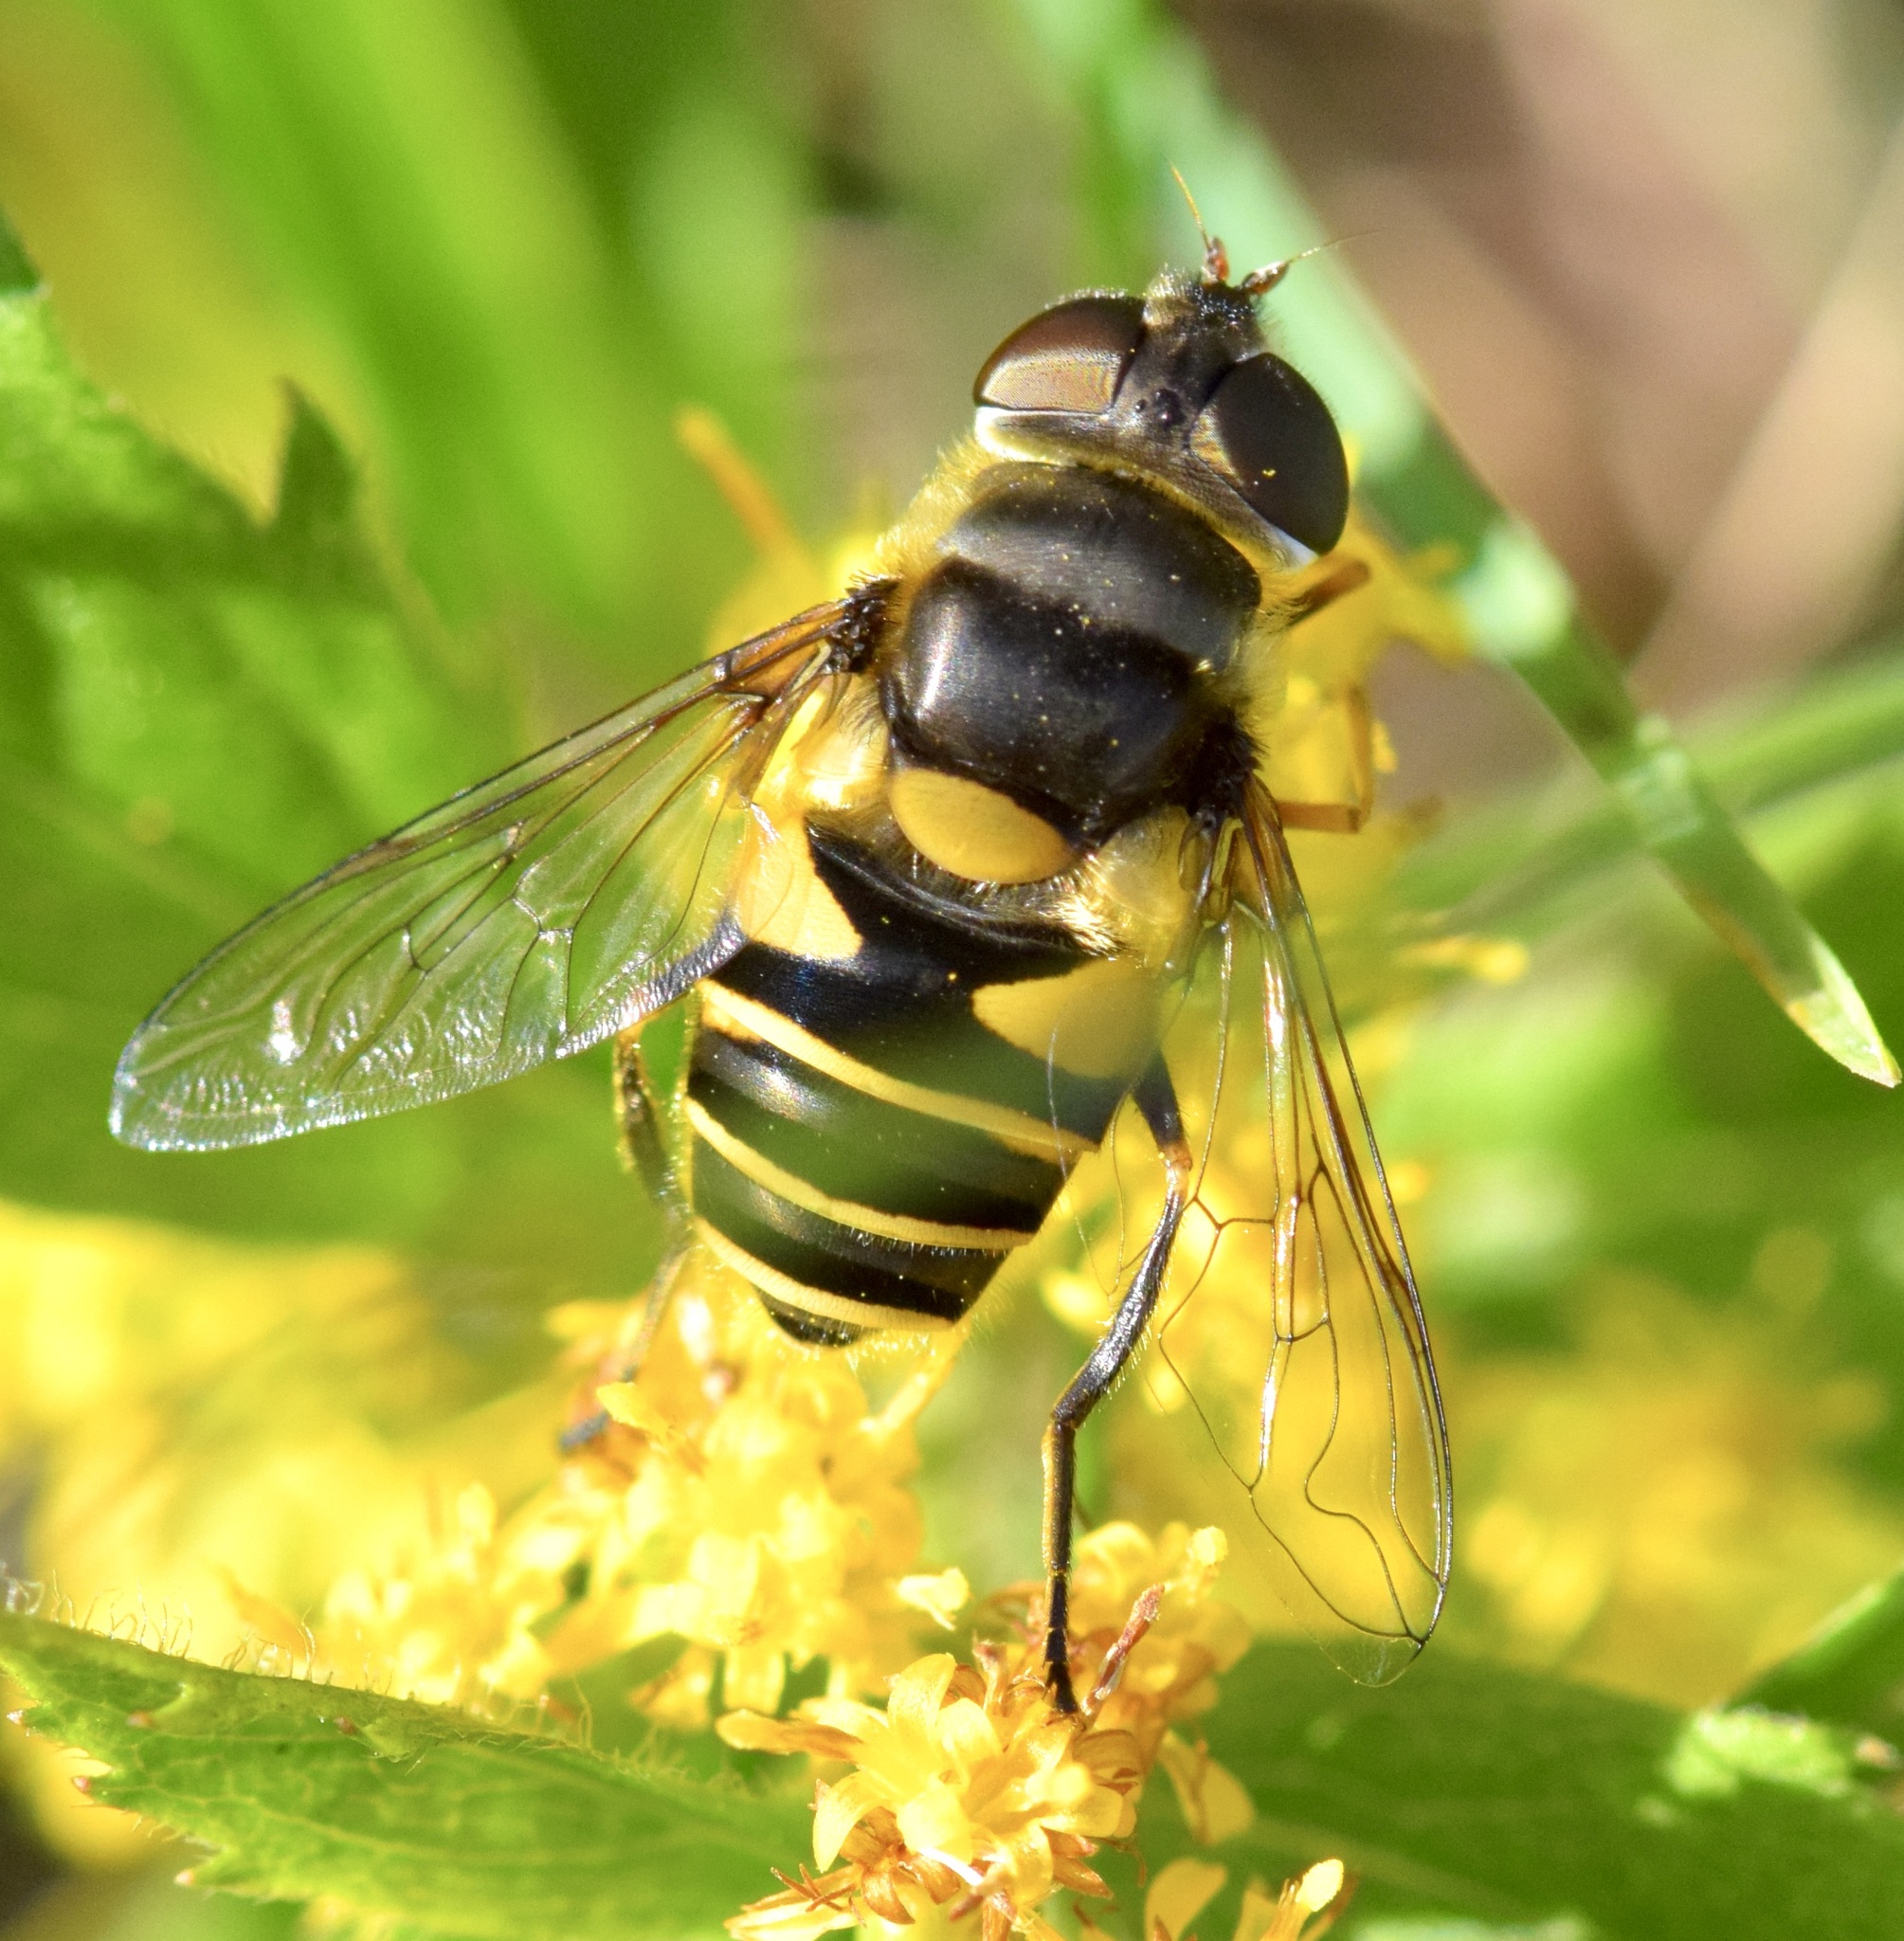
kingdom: Animalia
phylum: Arthropoda
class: Insecta
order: Diptera
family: Syrphidae
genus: Eristalis
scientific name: Eristalis transversa
